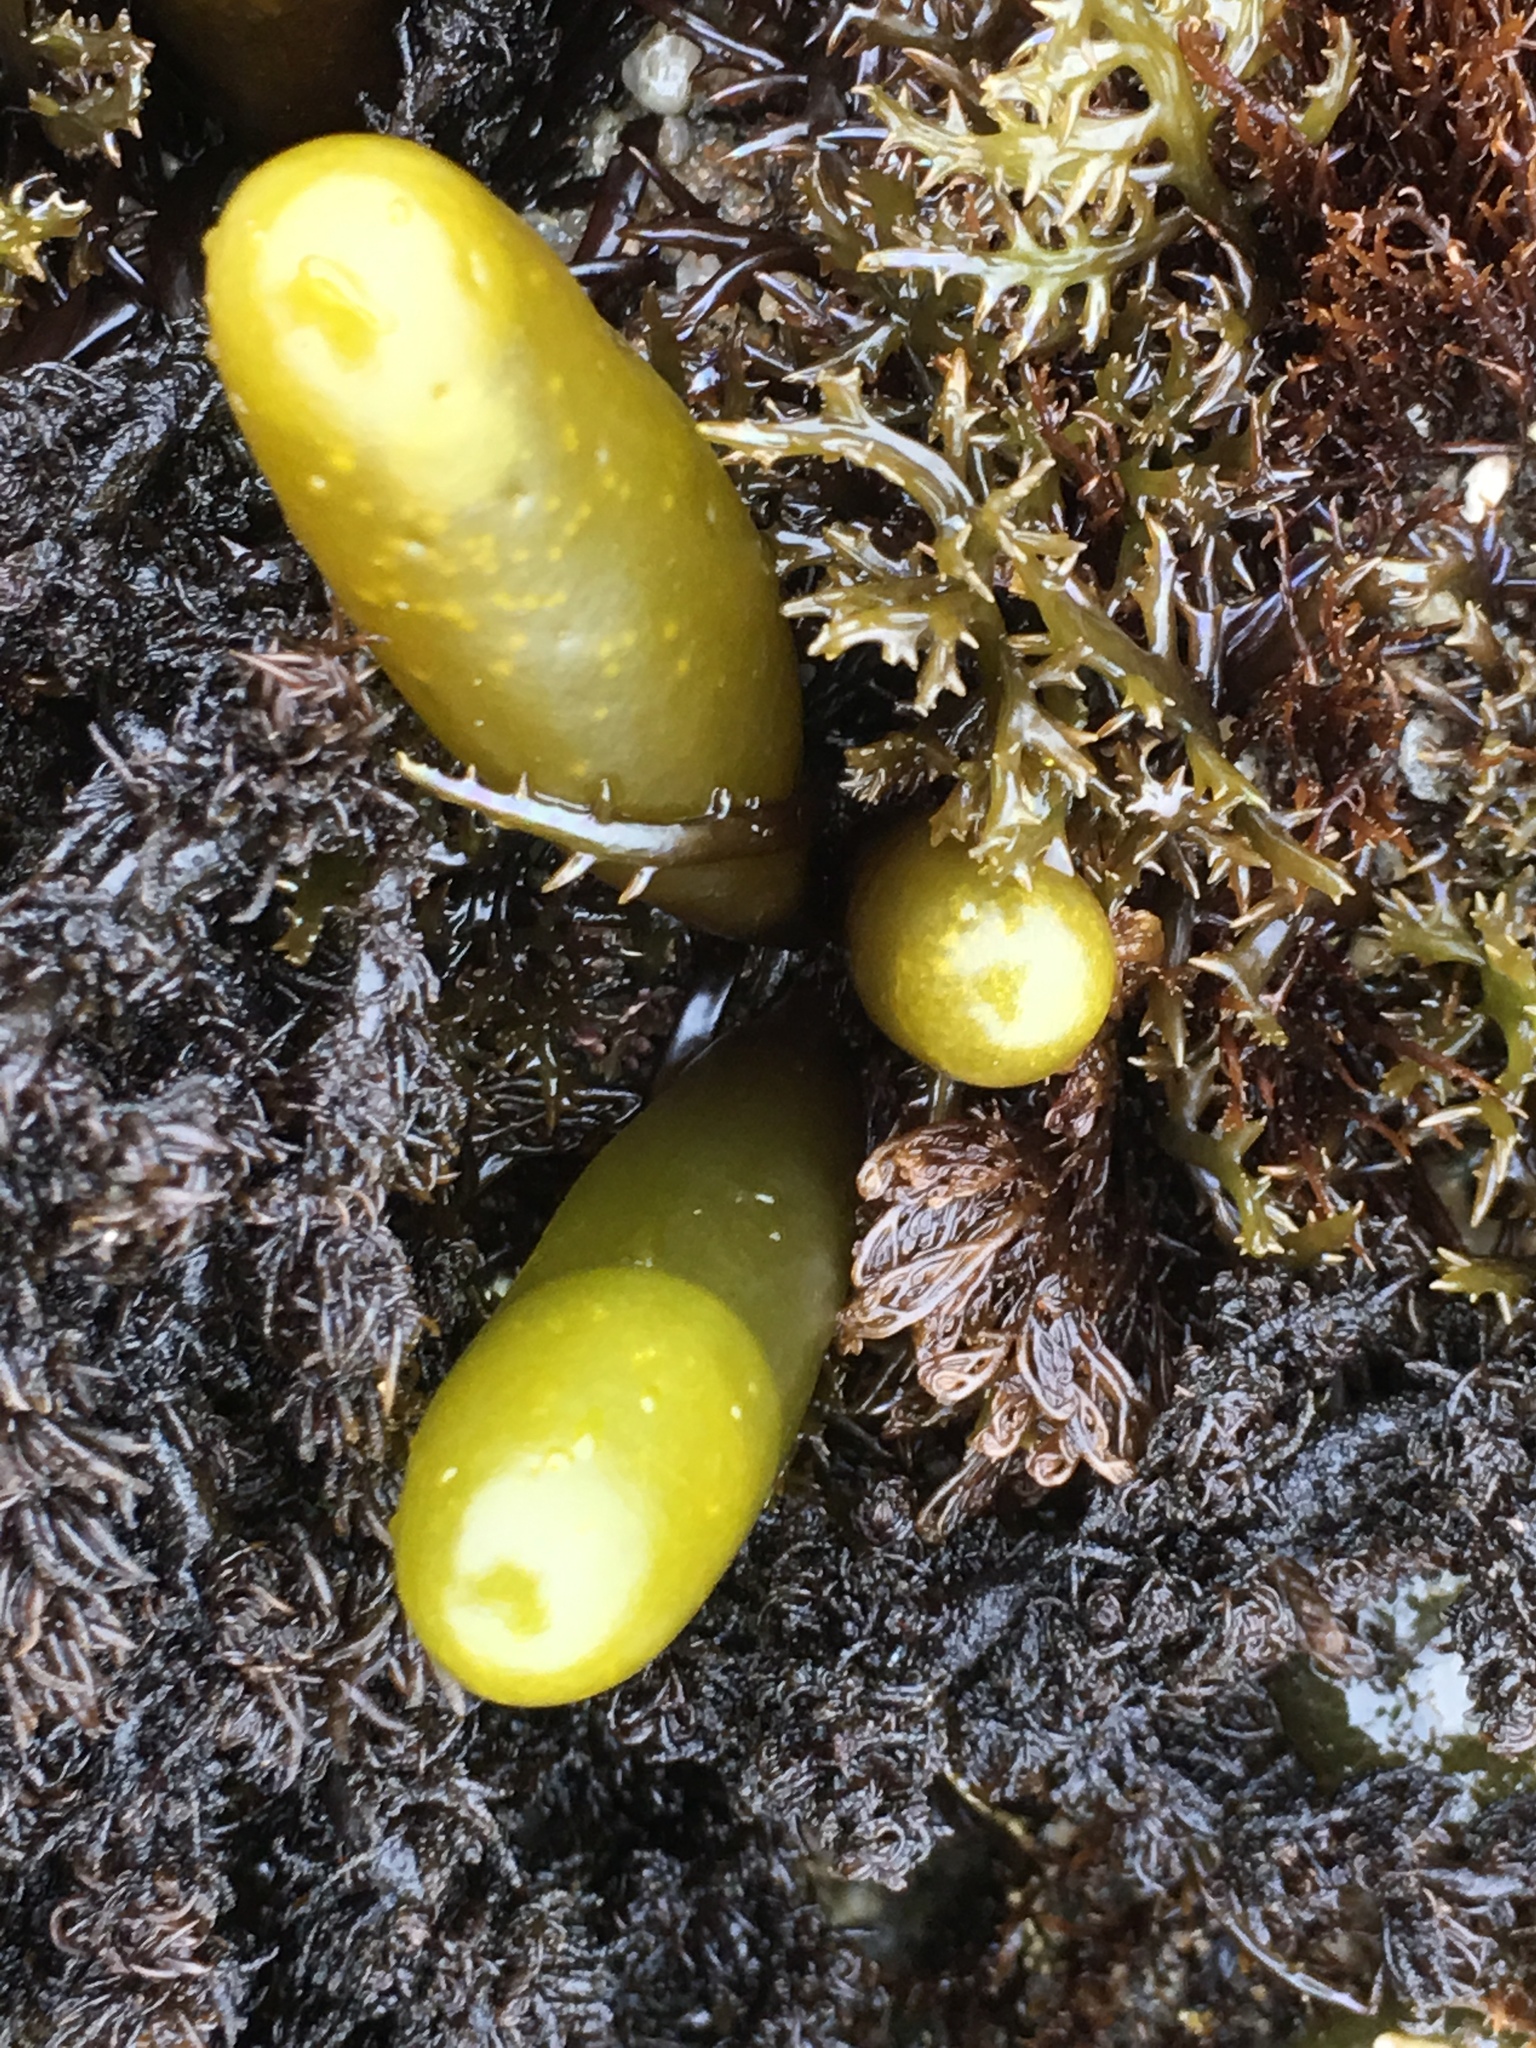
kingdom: Plantae
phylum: Rhodophyta
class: Florideophyceae
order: Palmariales
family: Palmariaceae
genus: Halosaccion
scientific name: Halosaccion glandiforme
